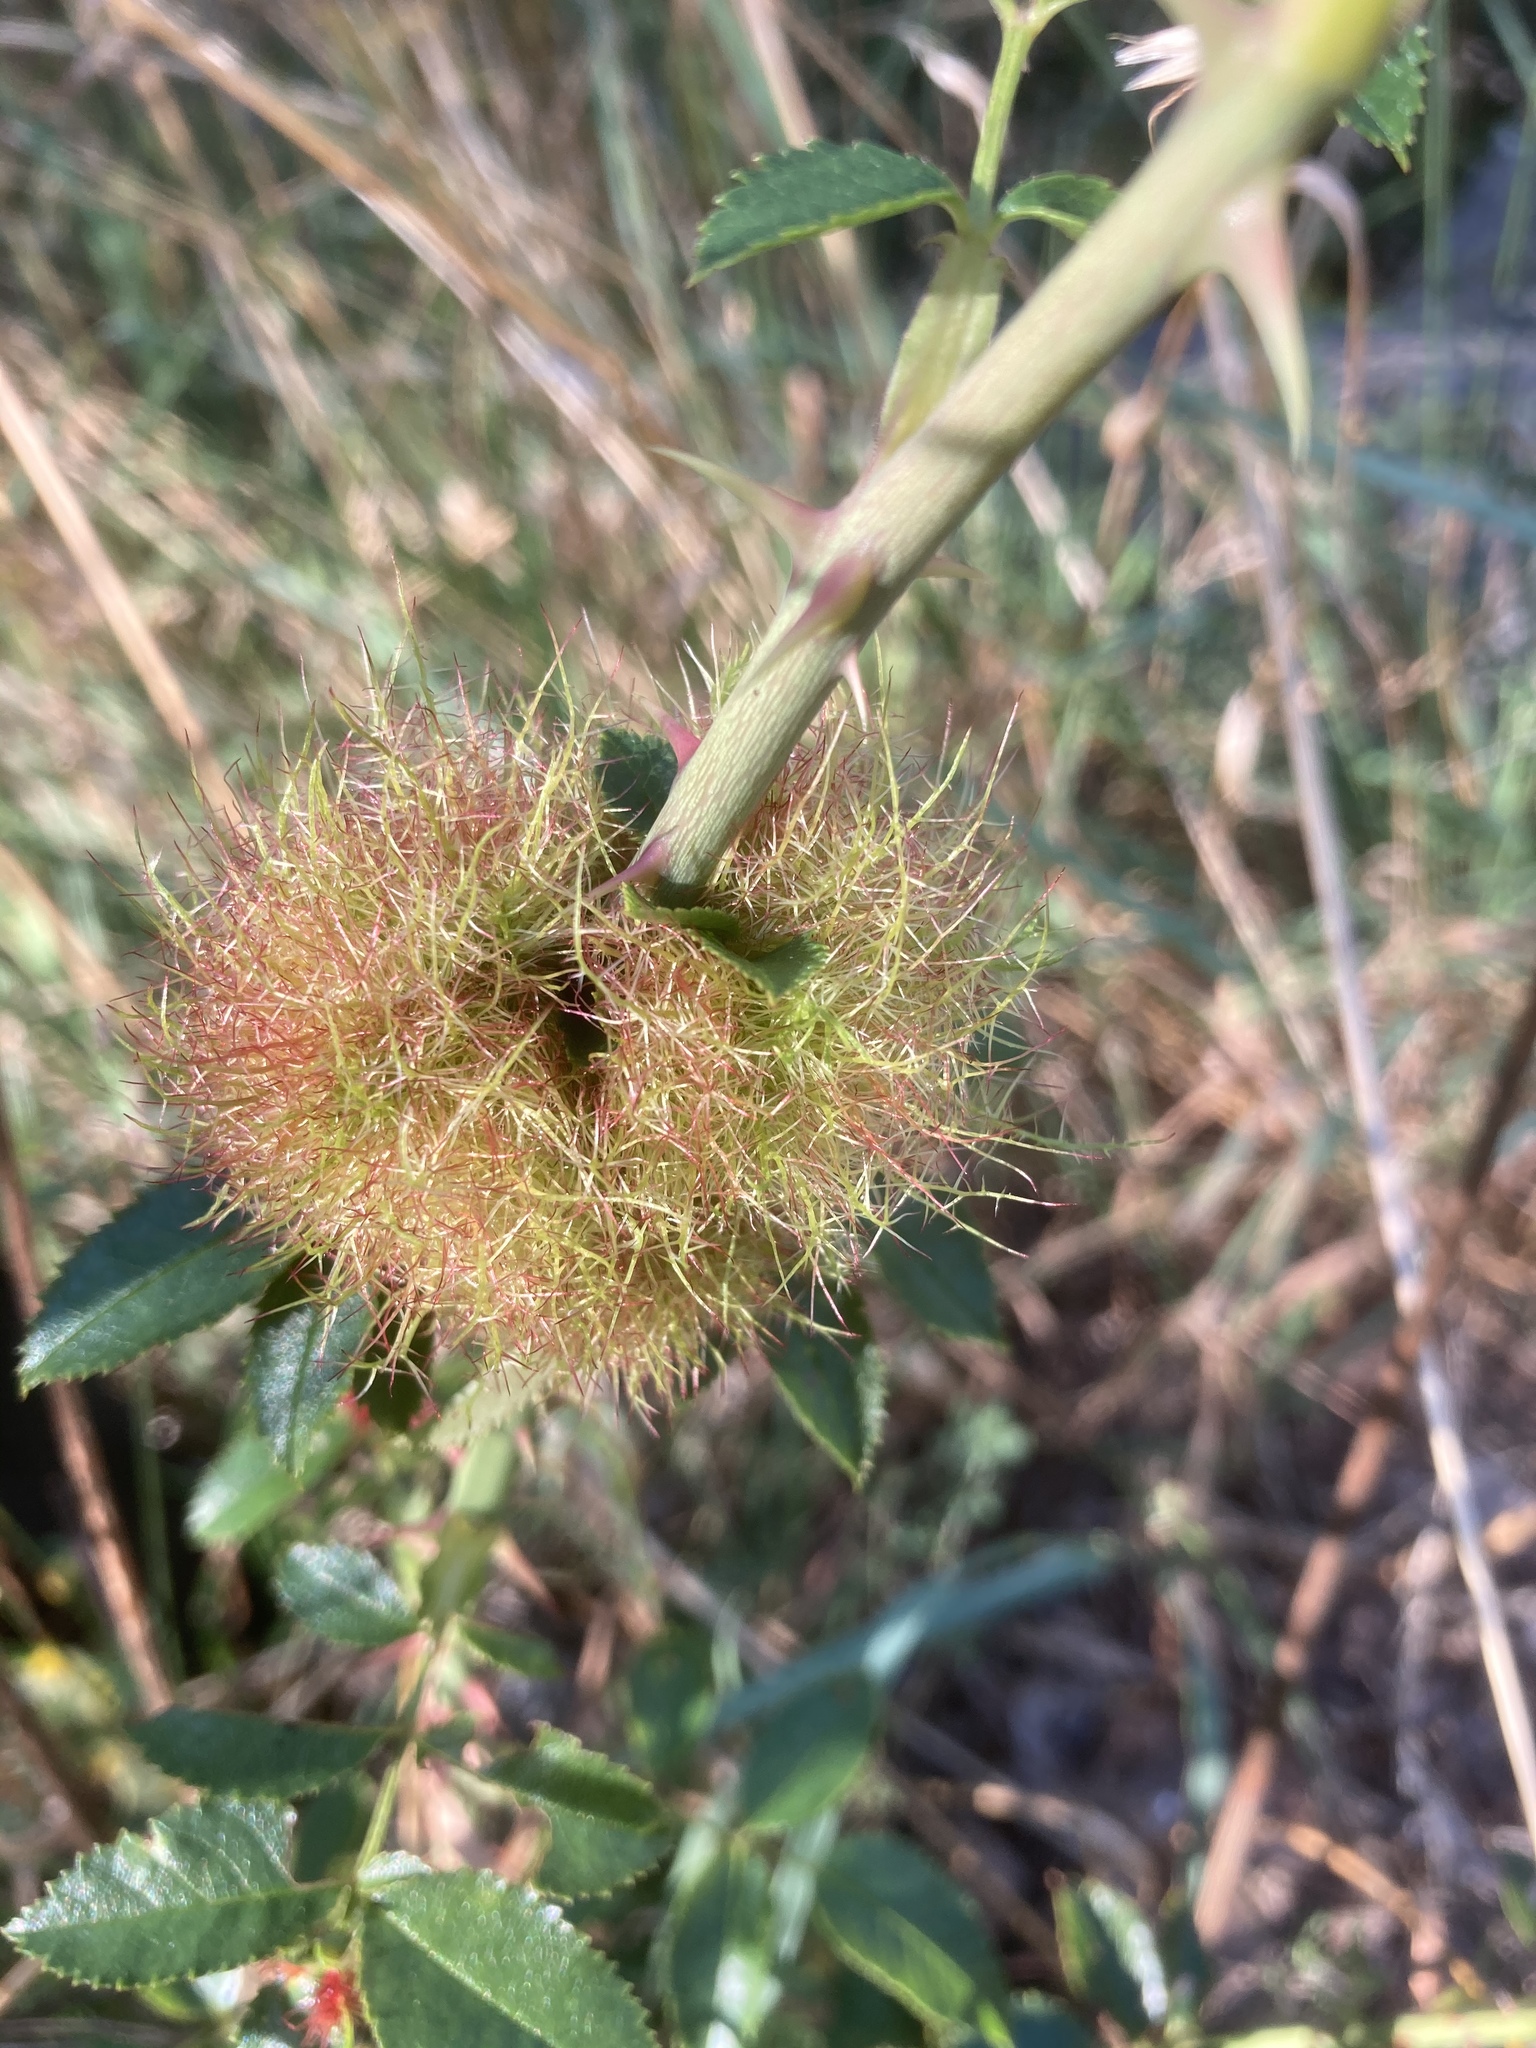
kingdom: Animalia
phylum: Arthropoda
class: Insecta
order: Hymenoptera
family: Cynipidae
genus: Diplolepis
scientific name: Diplolepis rosae
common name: Bedeguar gall
